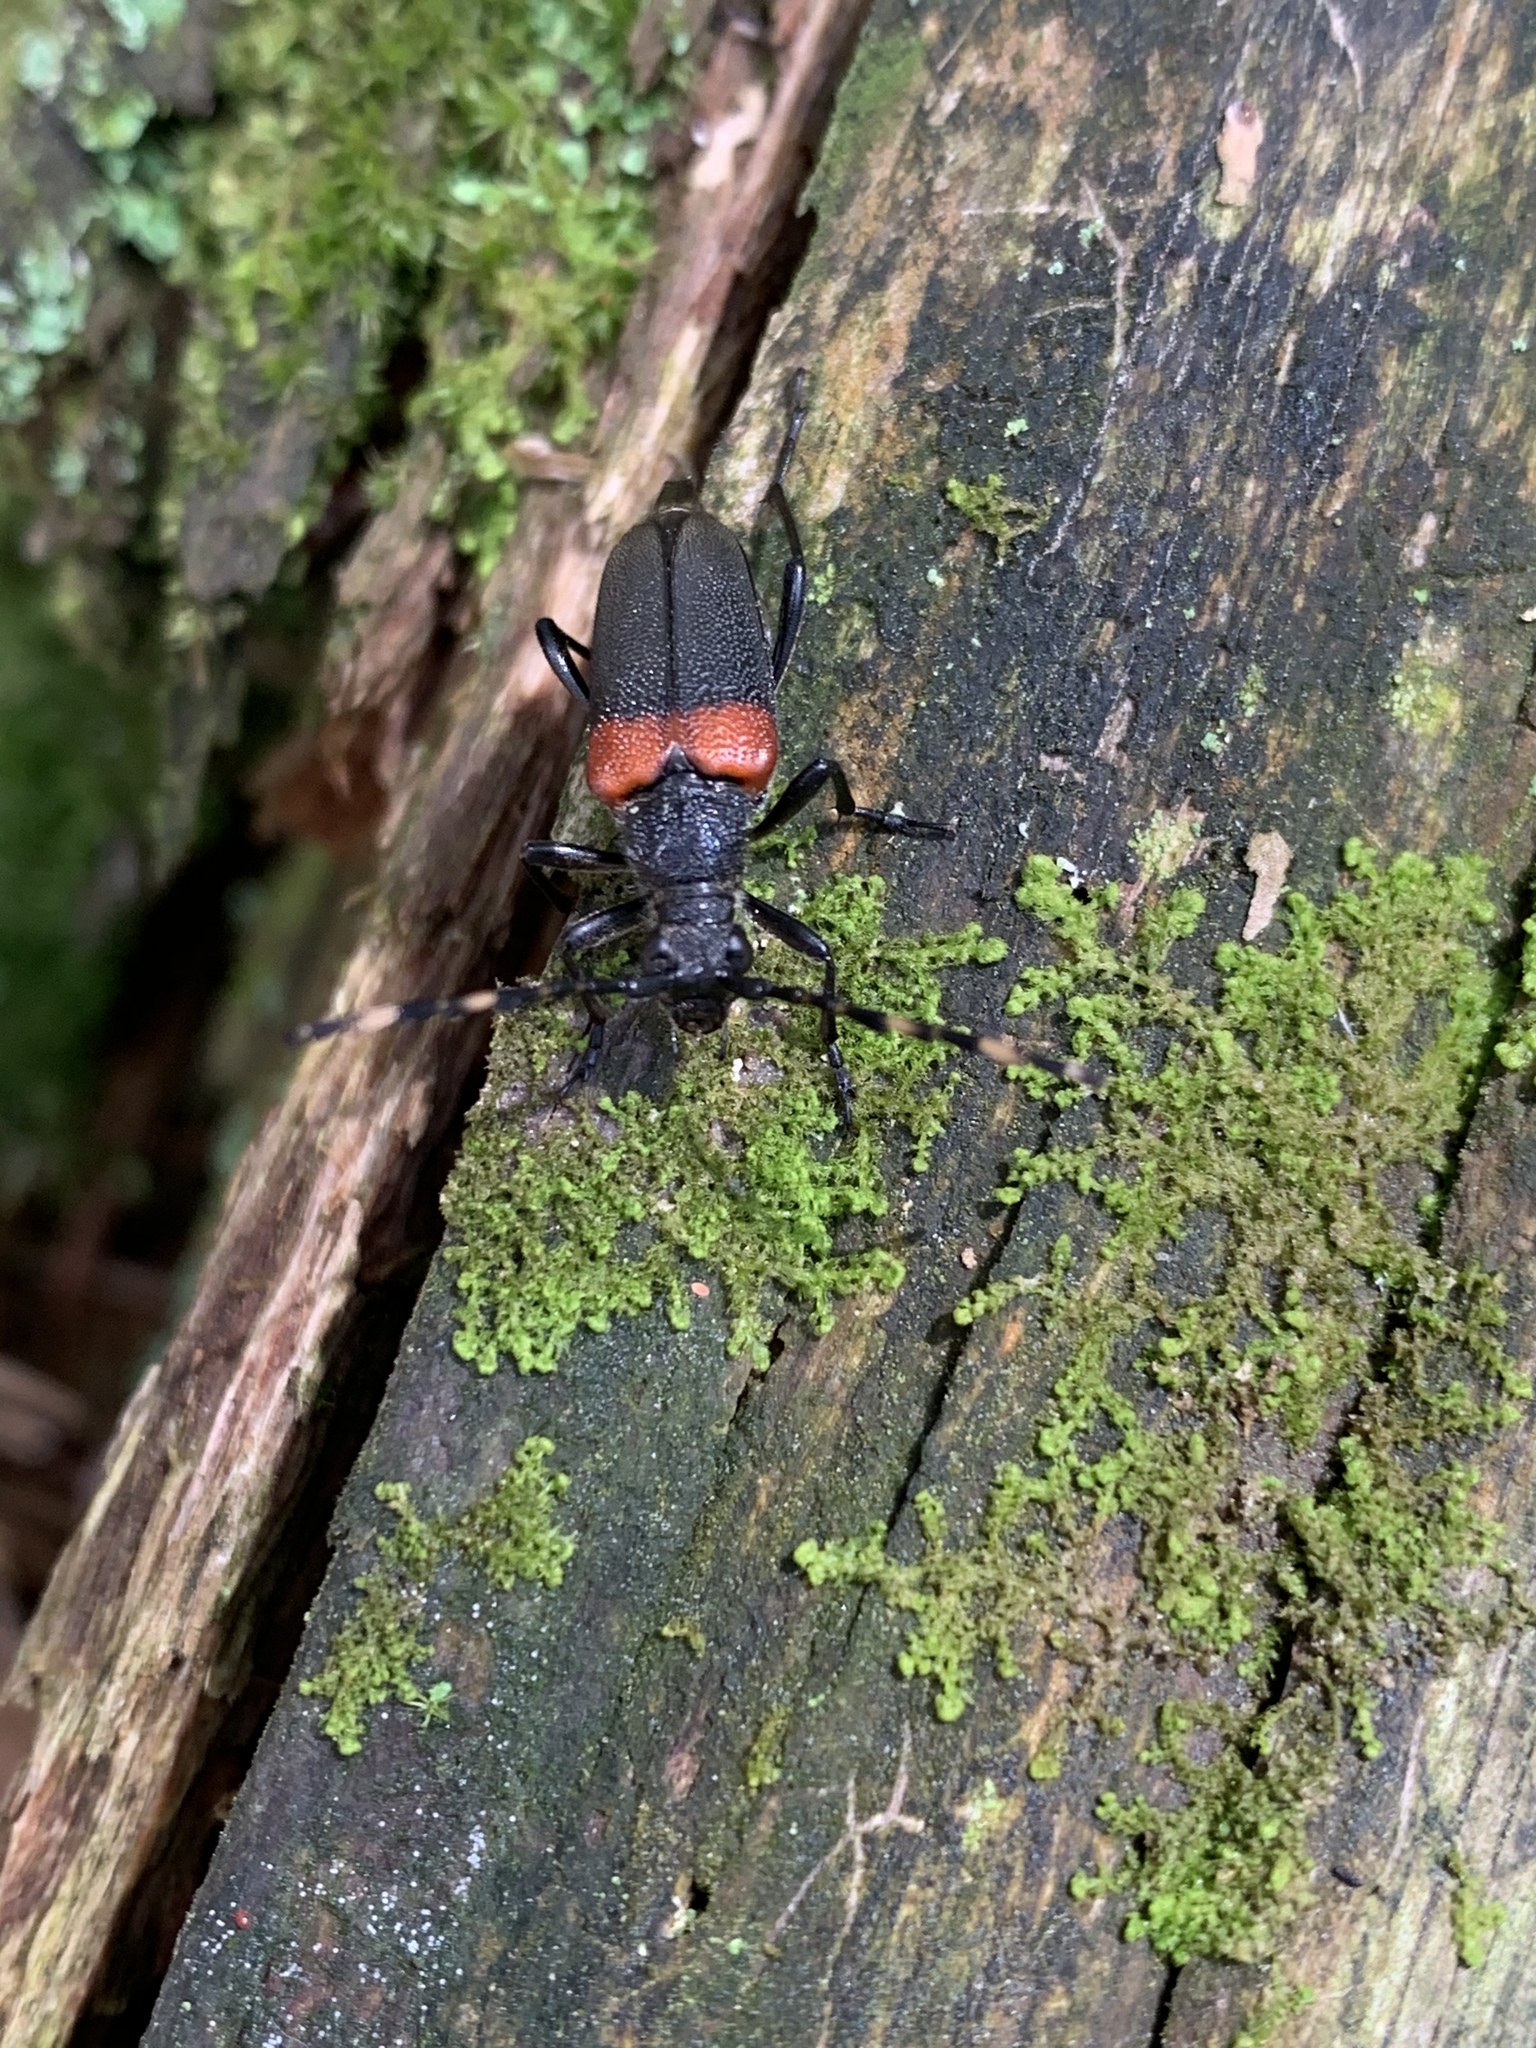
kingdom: Animalia
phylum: Arthropoda
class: Insecta
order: Coleoptera
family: Cerambycidae
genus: Stictoleptura
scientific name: Stictoleptura canadensis
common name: Red-shouldered pine borer
